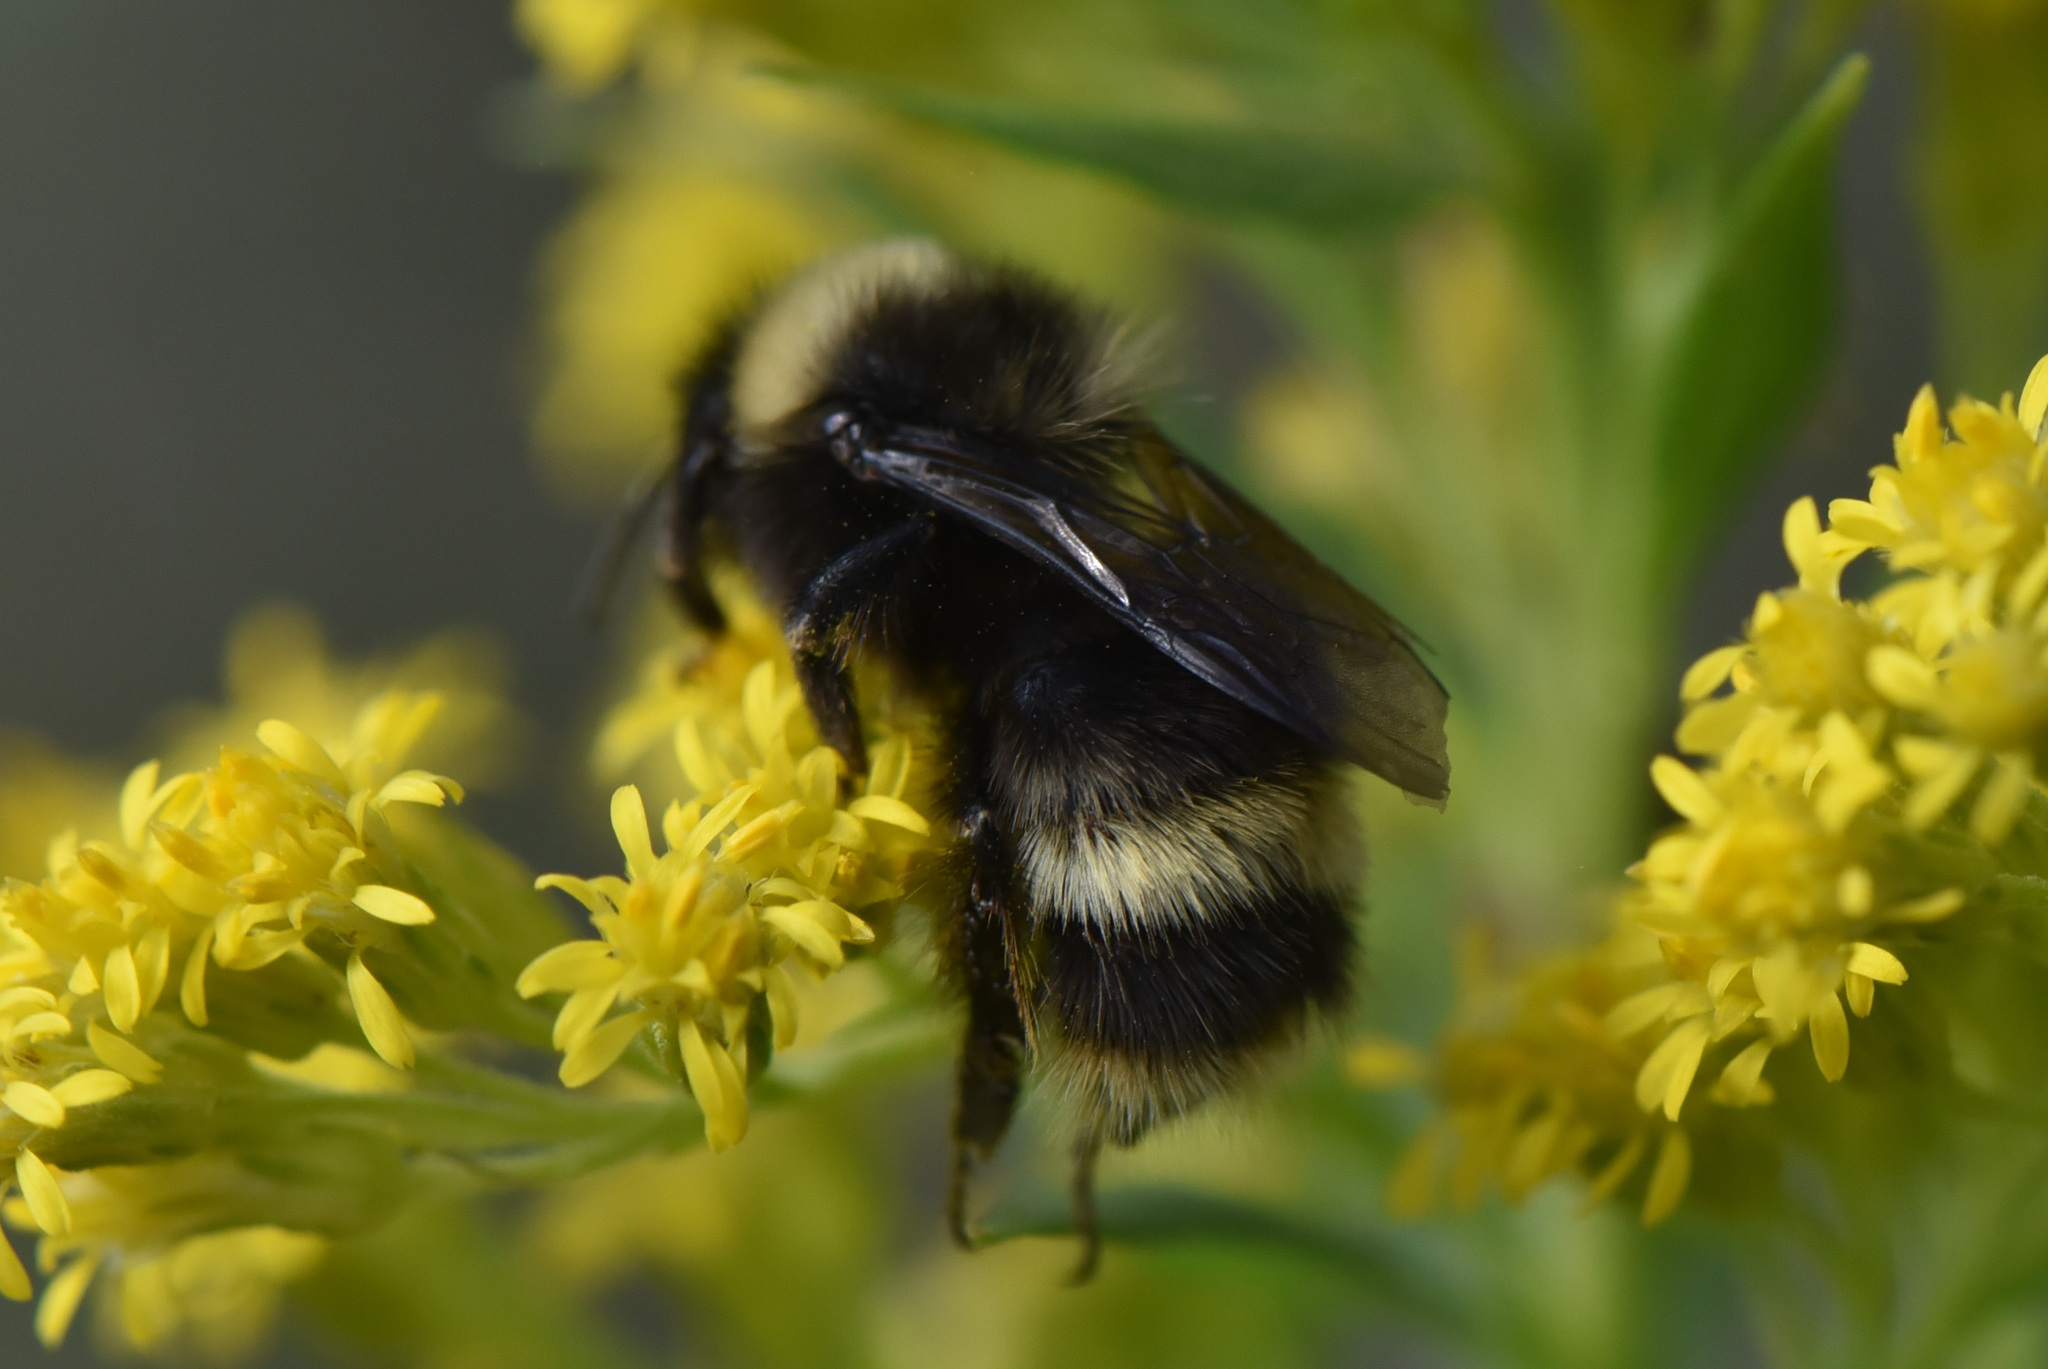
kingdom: Animalia
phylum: Arthropoda
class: Insecta
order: Hymenoptera
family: Apidae
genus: Bombus
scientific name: Bombus mckayi
